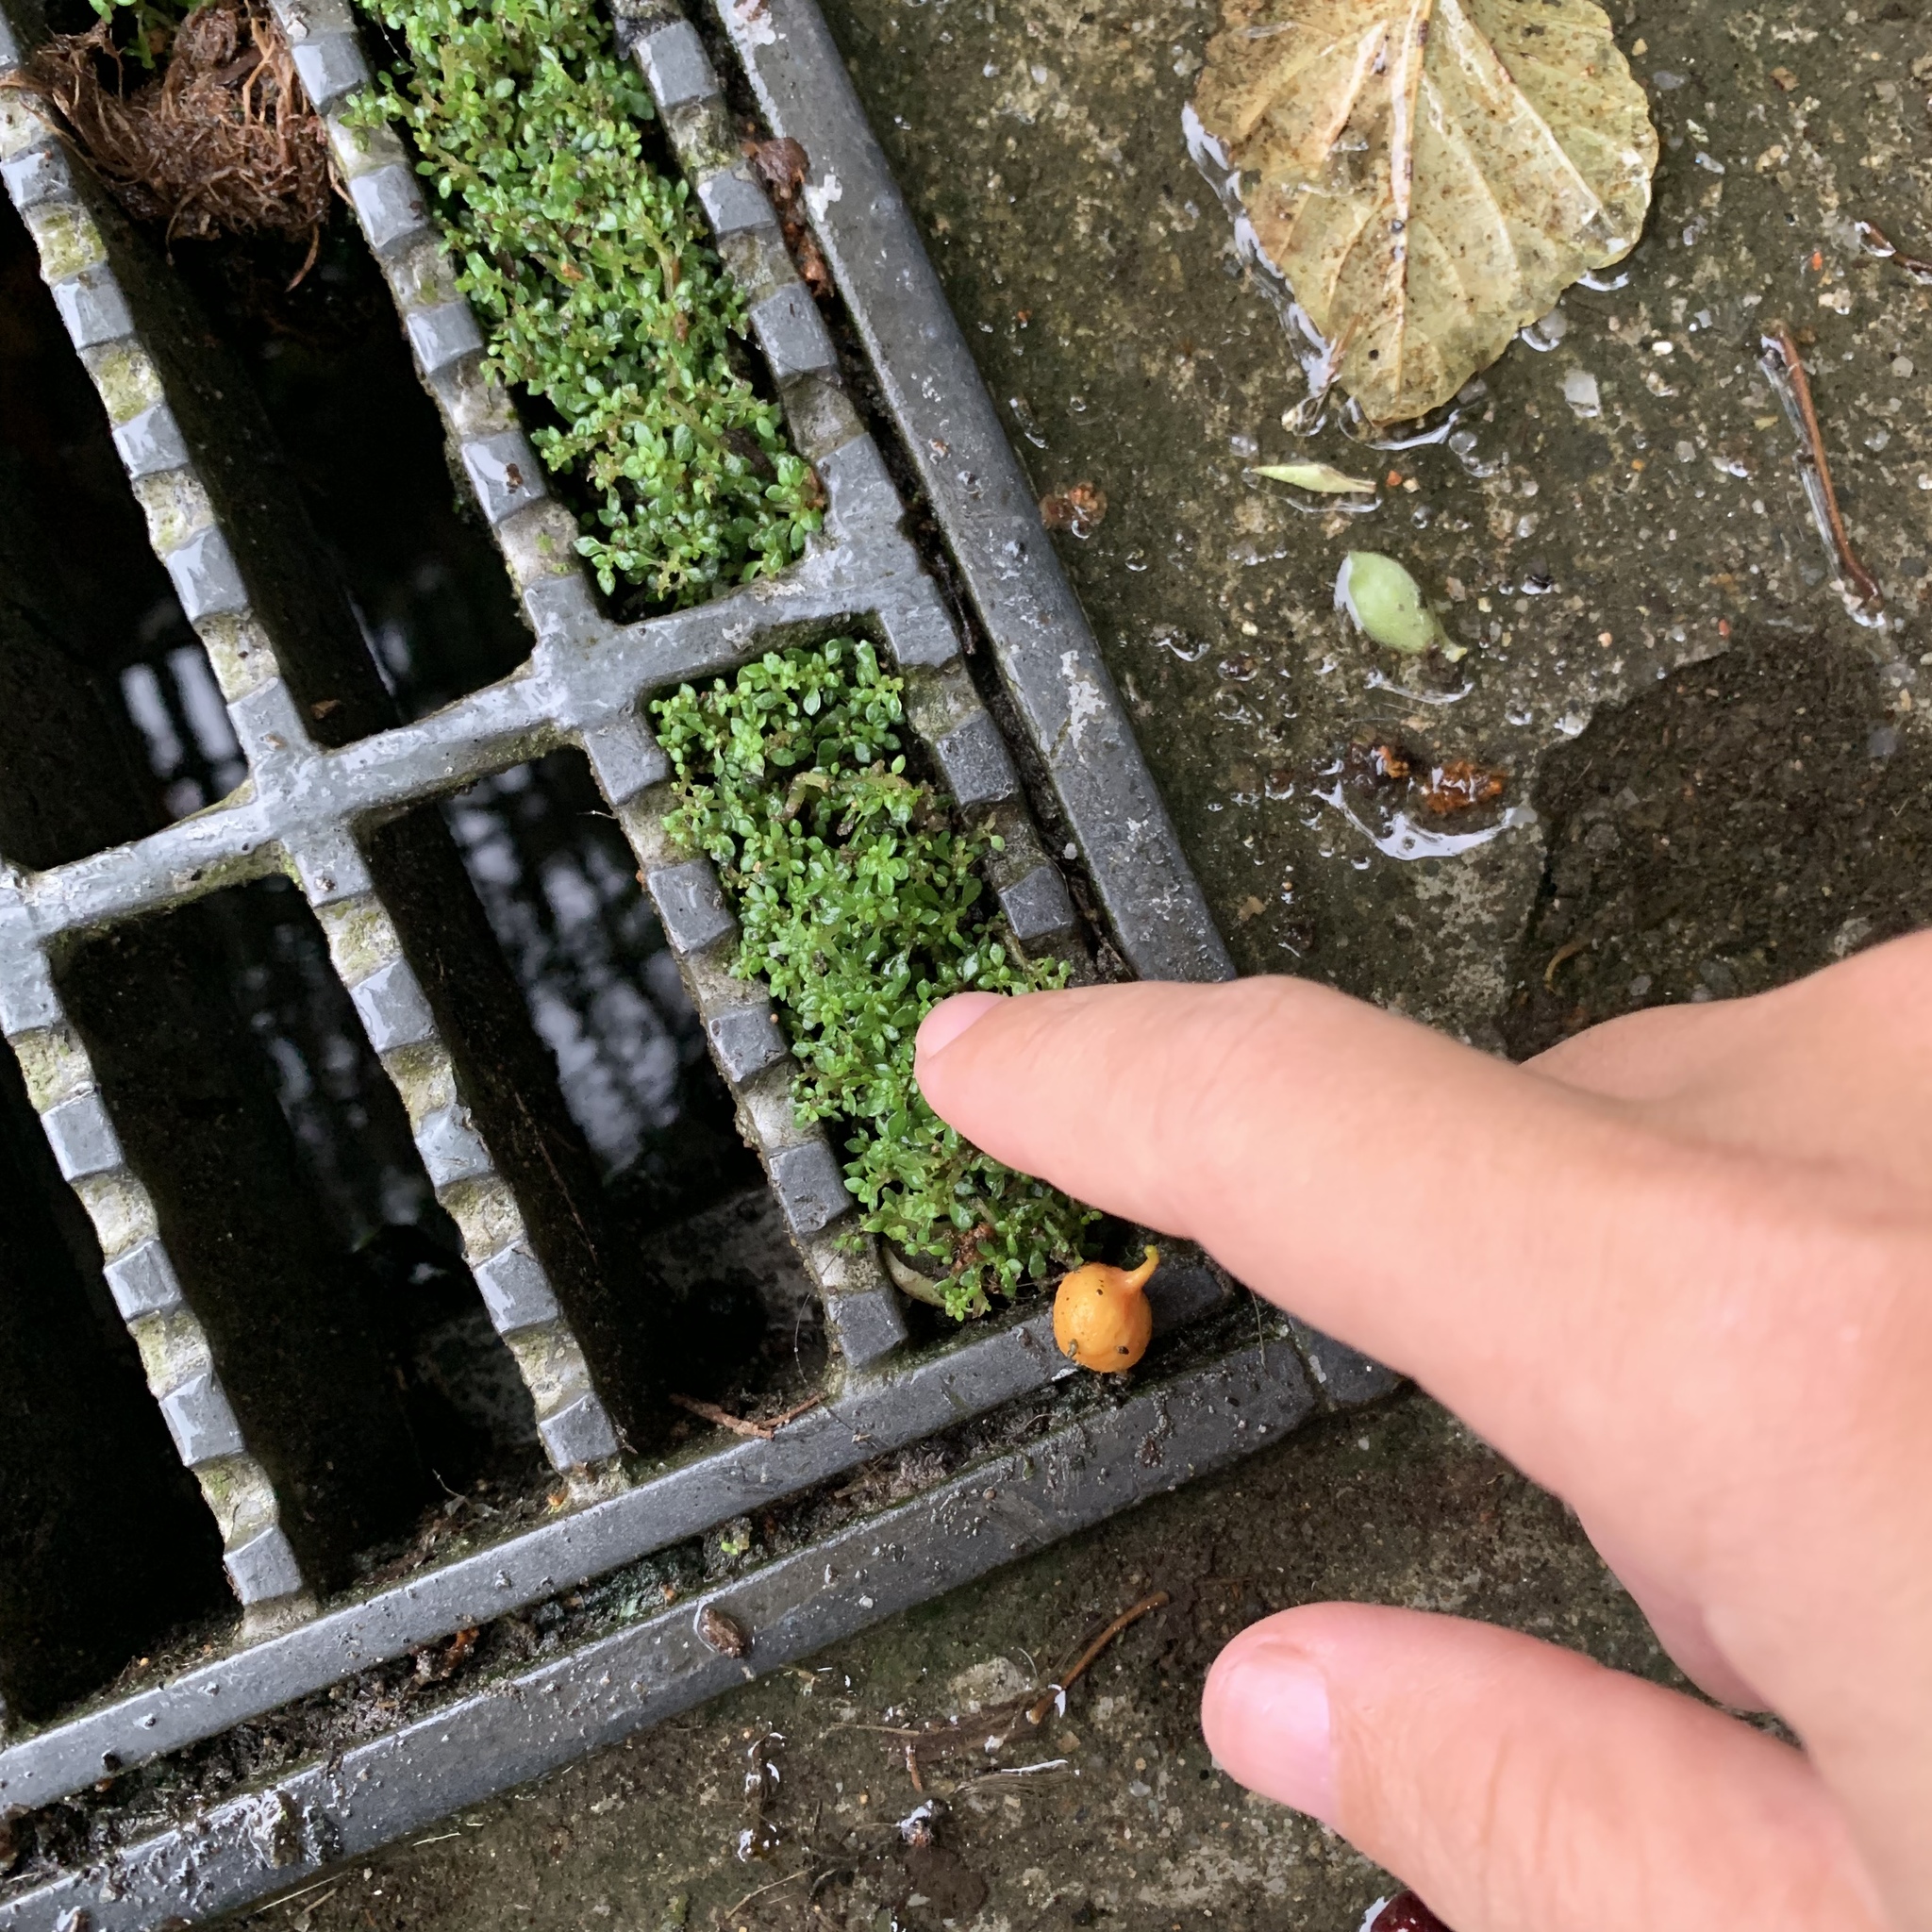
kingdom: Plantae
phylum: Tracheophyta
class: Magnoliopsida
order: Rosales
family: Urticaceae
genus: Pilea
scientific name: Pilea microphylla
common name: Artillery-plant
